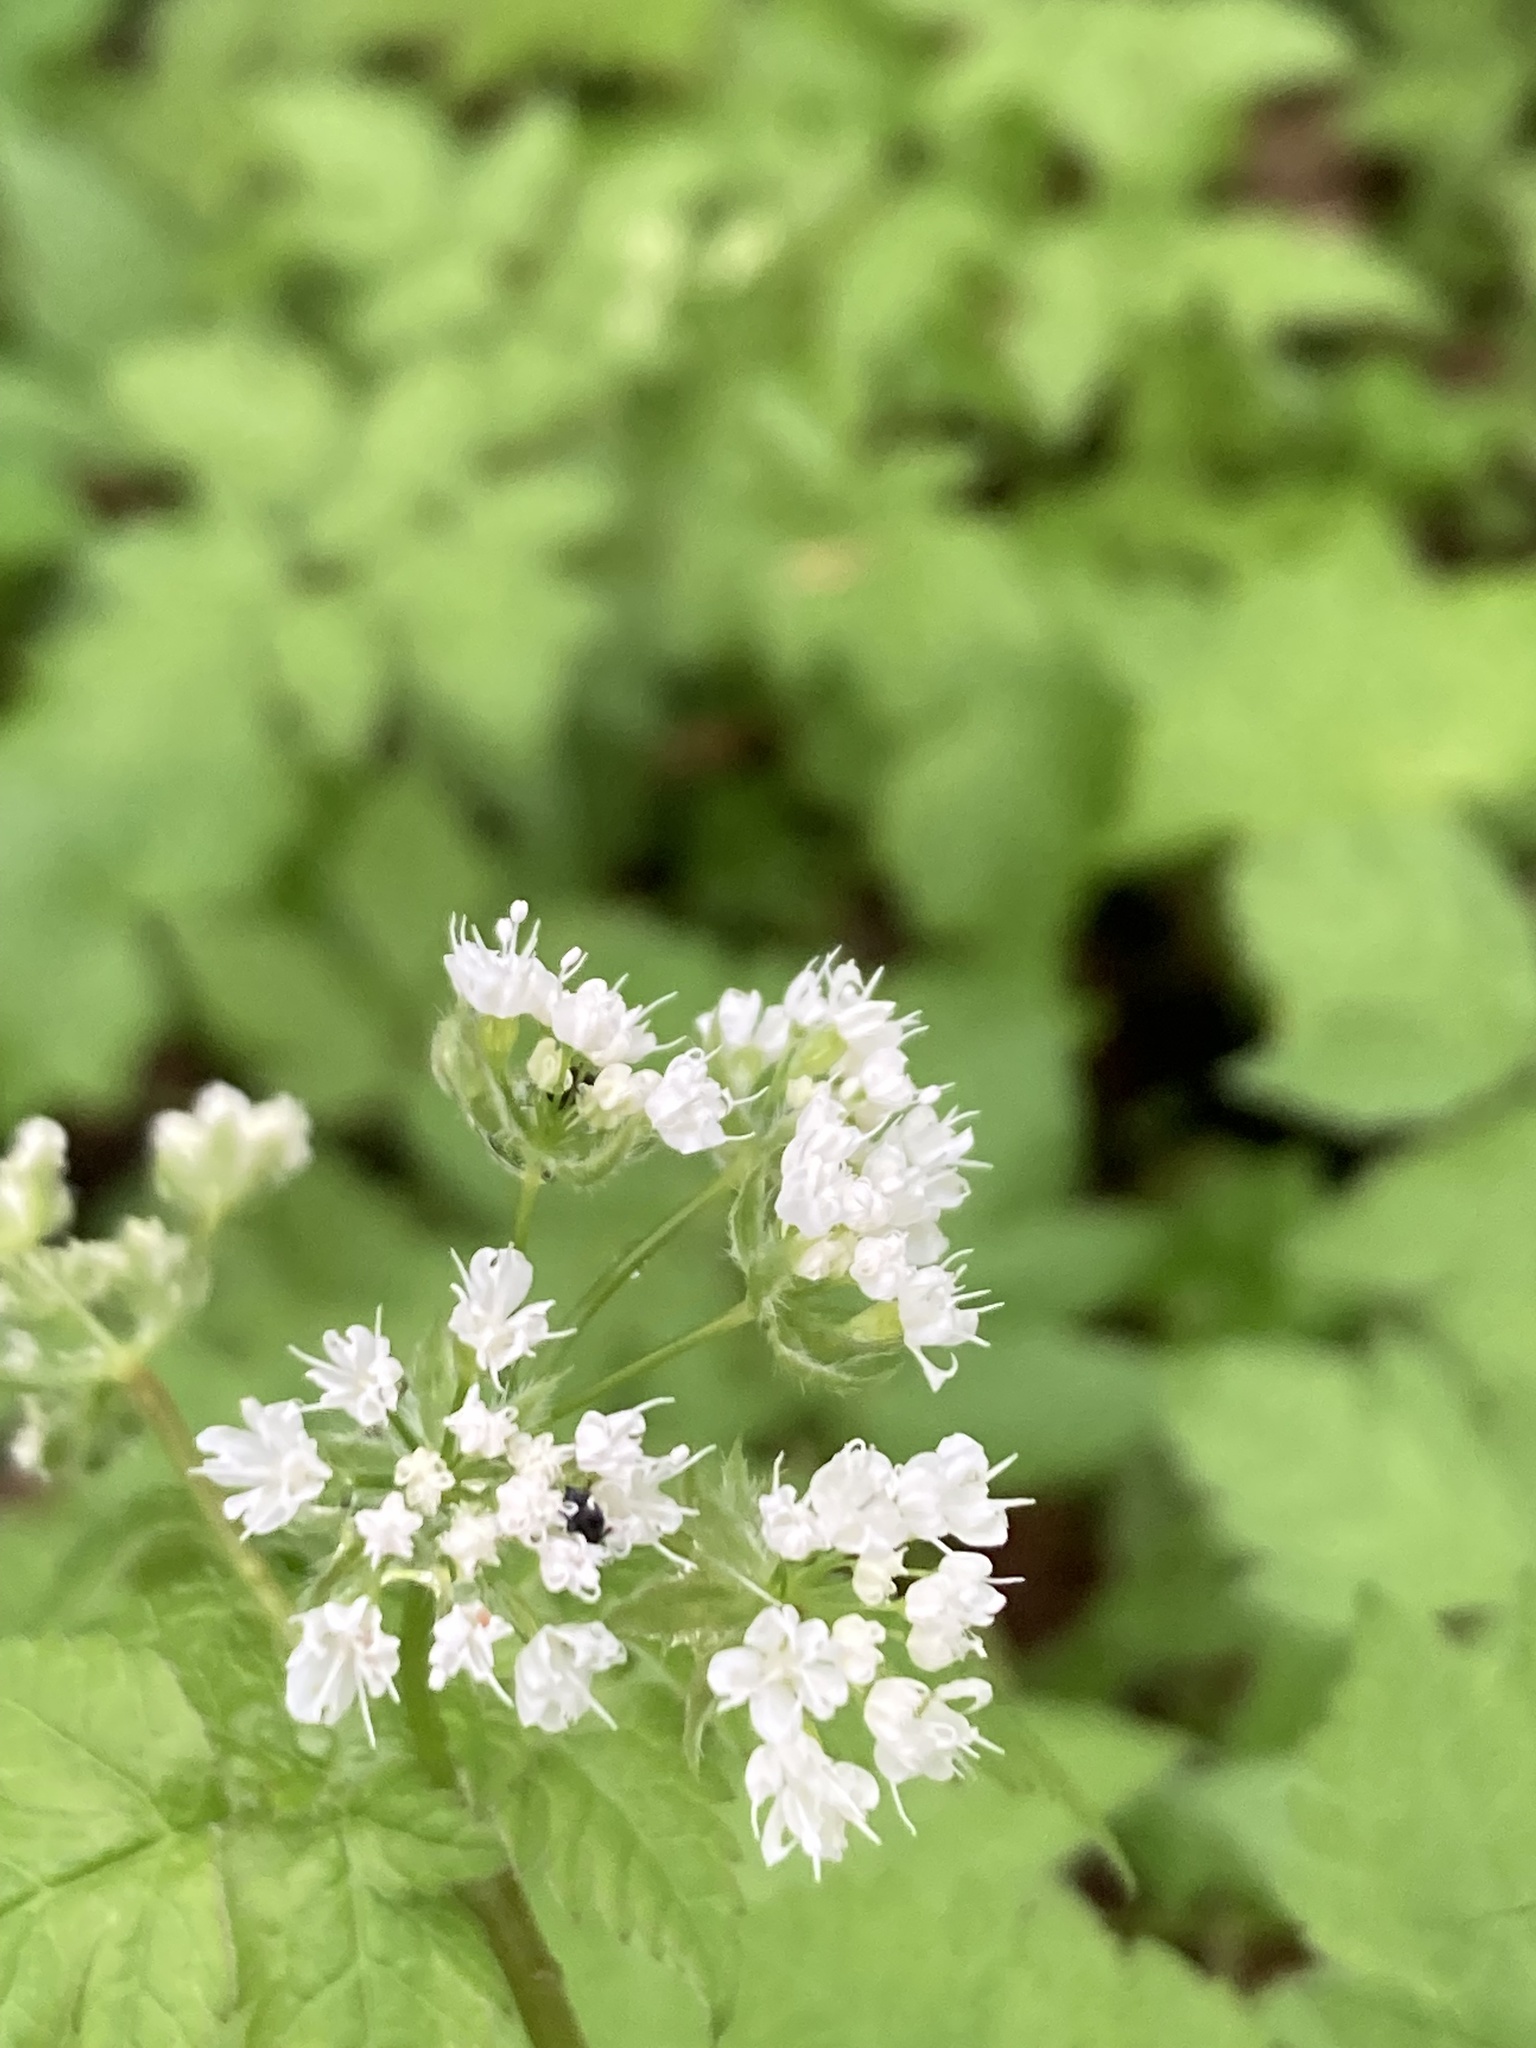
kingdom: Plantae
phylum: Tracheophyta
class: Magnoliopsida
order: Apiales
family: Apiaceae
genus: Osmorhiza
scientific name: Osmorhiza longistylis
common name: Smooth sweet cicely
